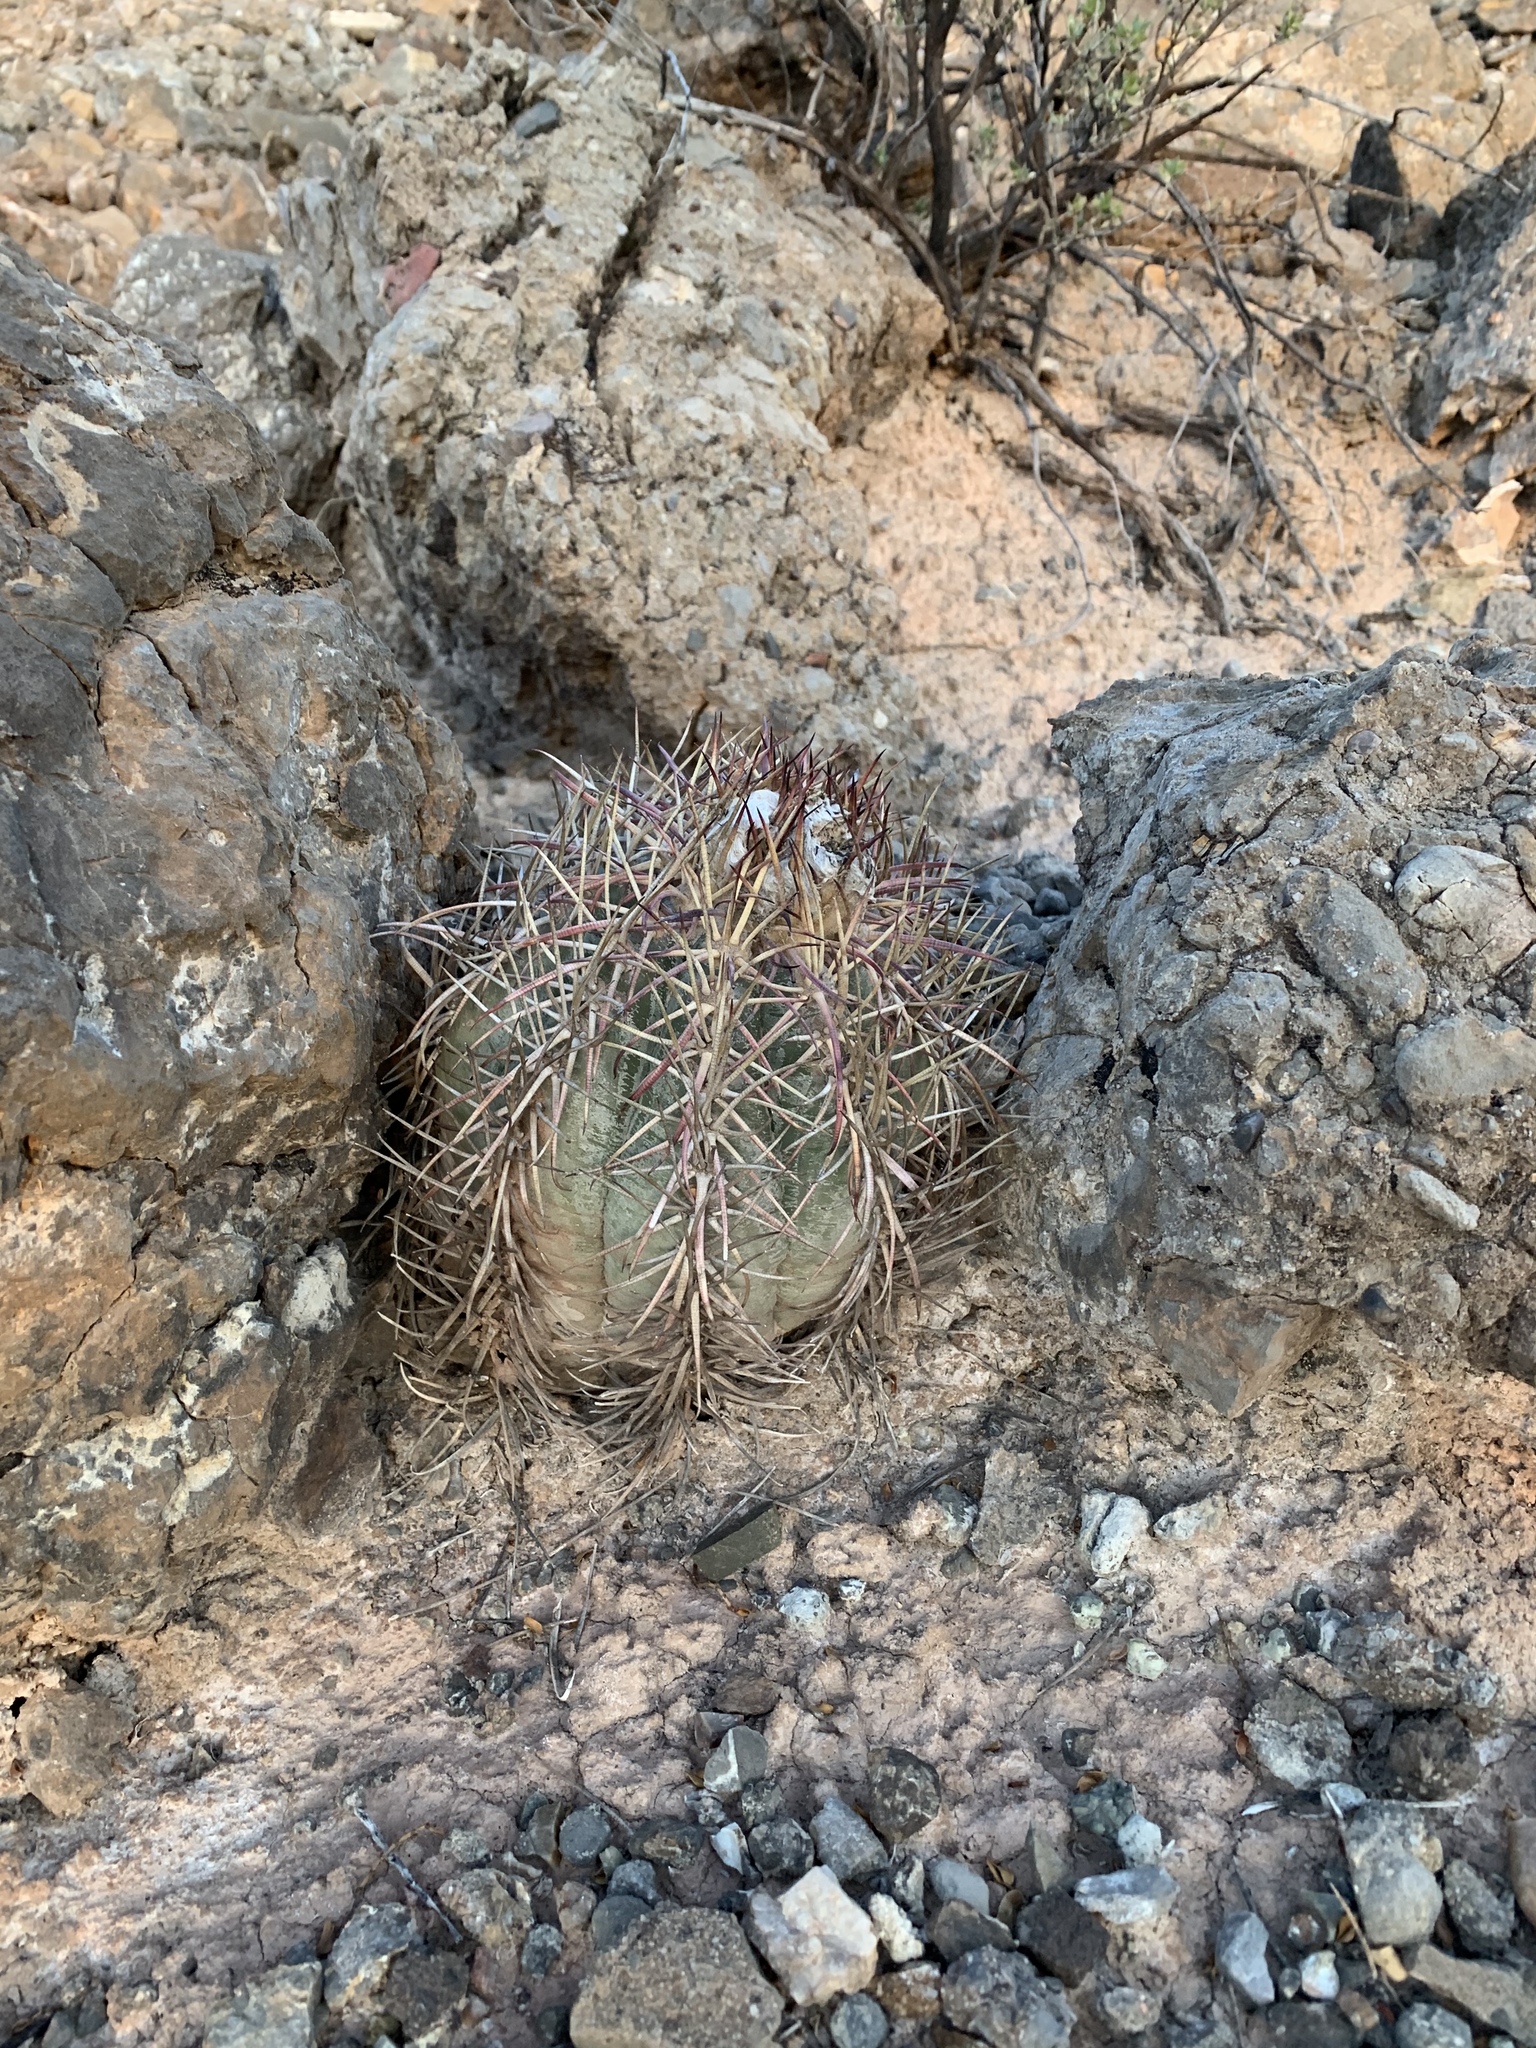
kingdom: Plantae
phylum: Tracheophyta
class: Magnoliopsida
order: Caryophyllales
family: Cactaceae
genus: Echinocactus
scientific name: Echinocactus horizonthalonius
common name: Devilshead
